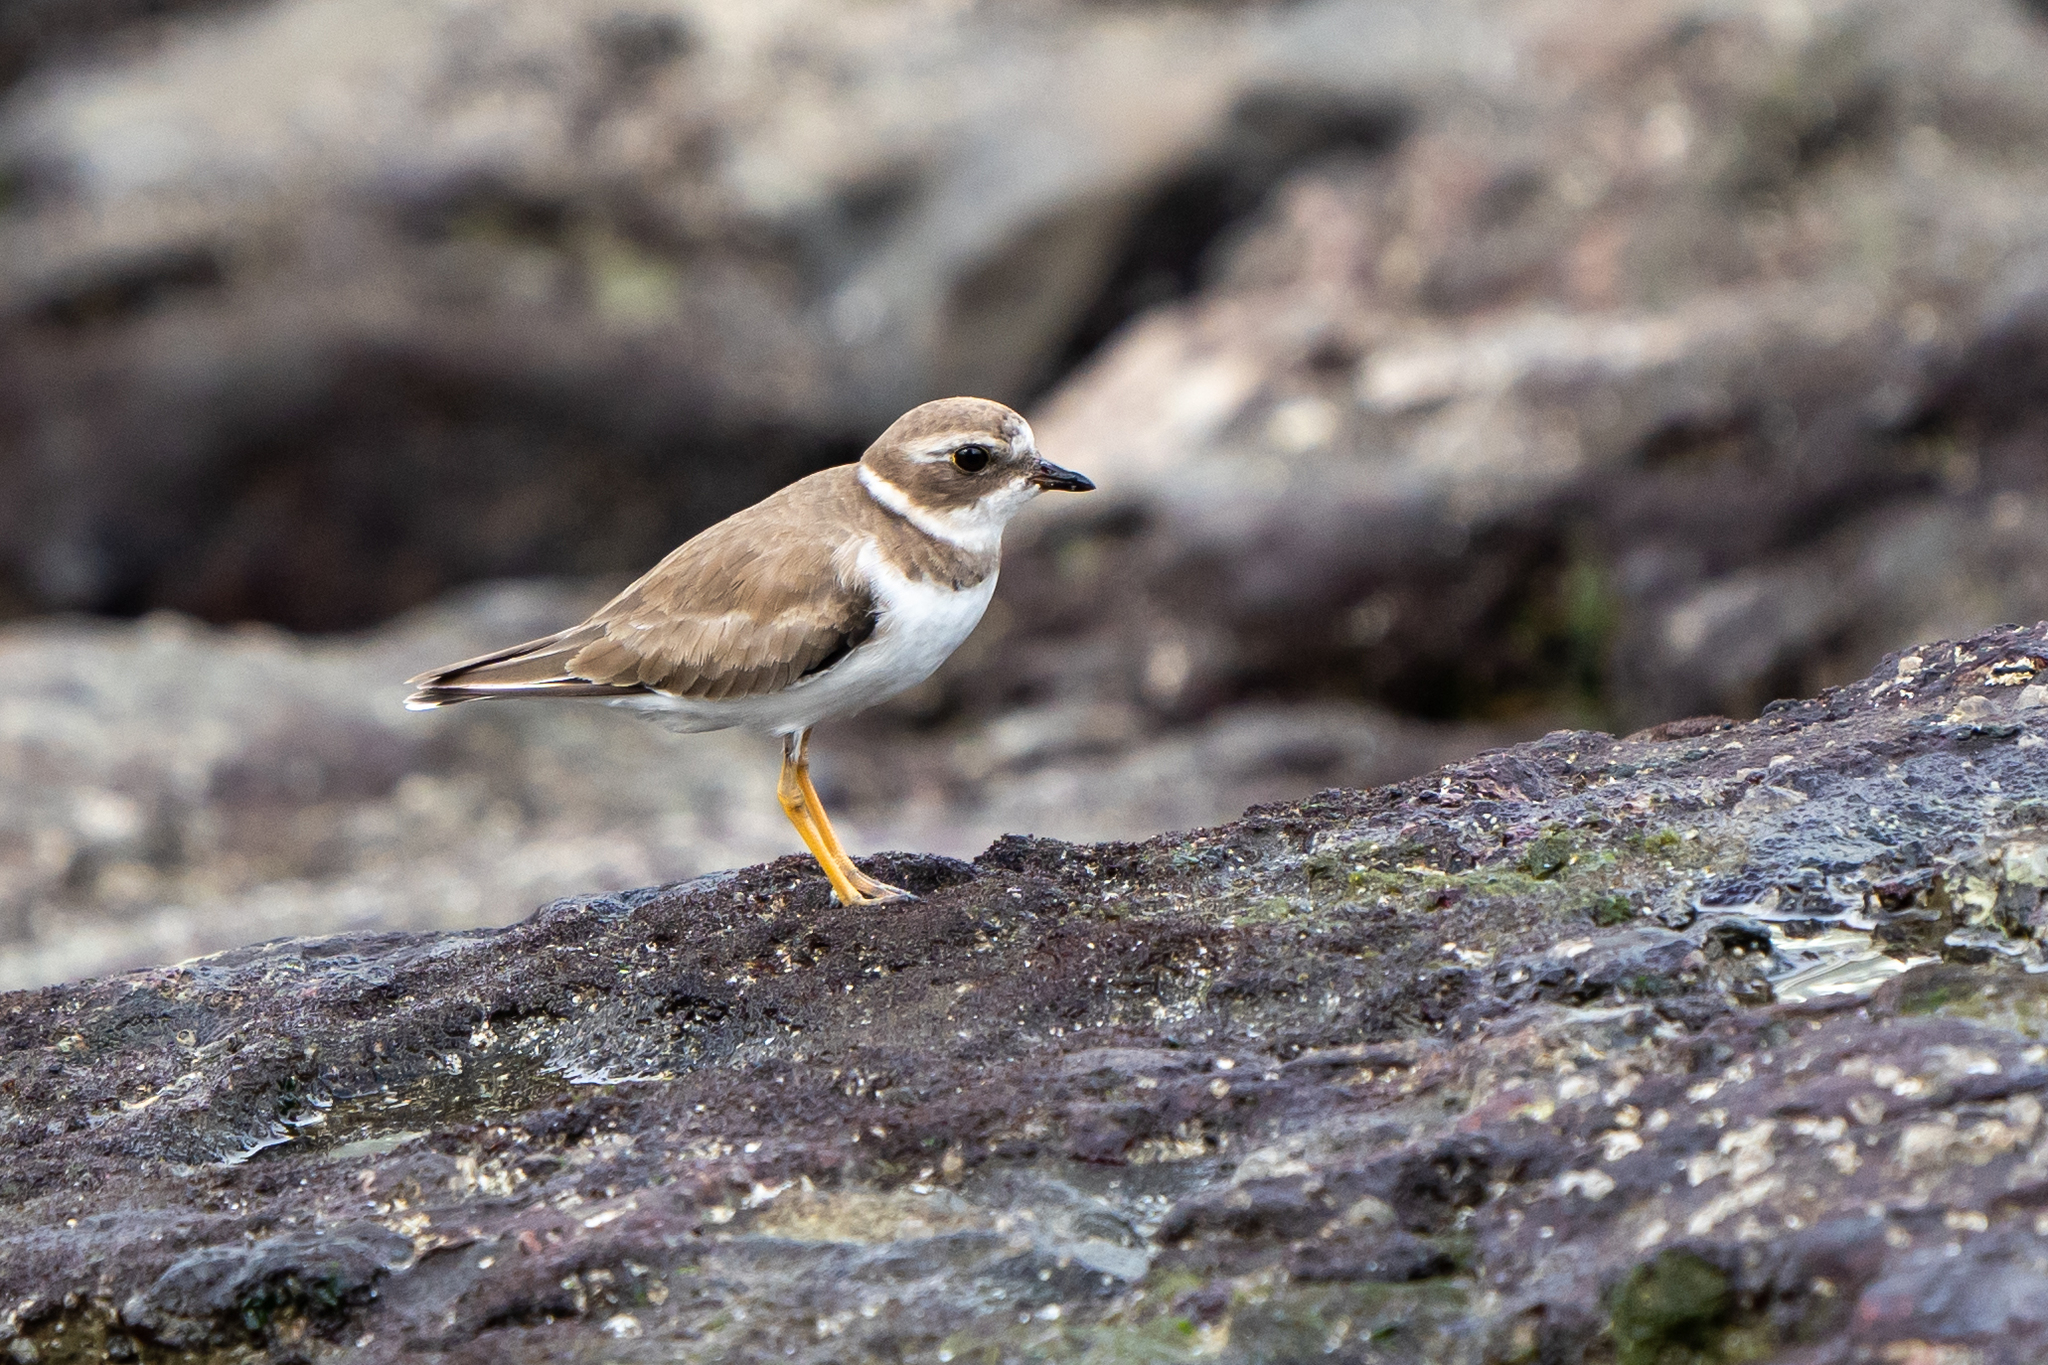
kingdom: Animalia
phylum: Chordata
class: Aves
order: Charadriiformes
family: Charadriidae
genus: Charadrius
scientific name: Charadrius semipalmatus
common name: Semipalmated plover
